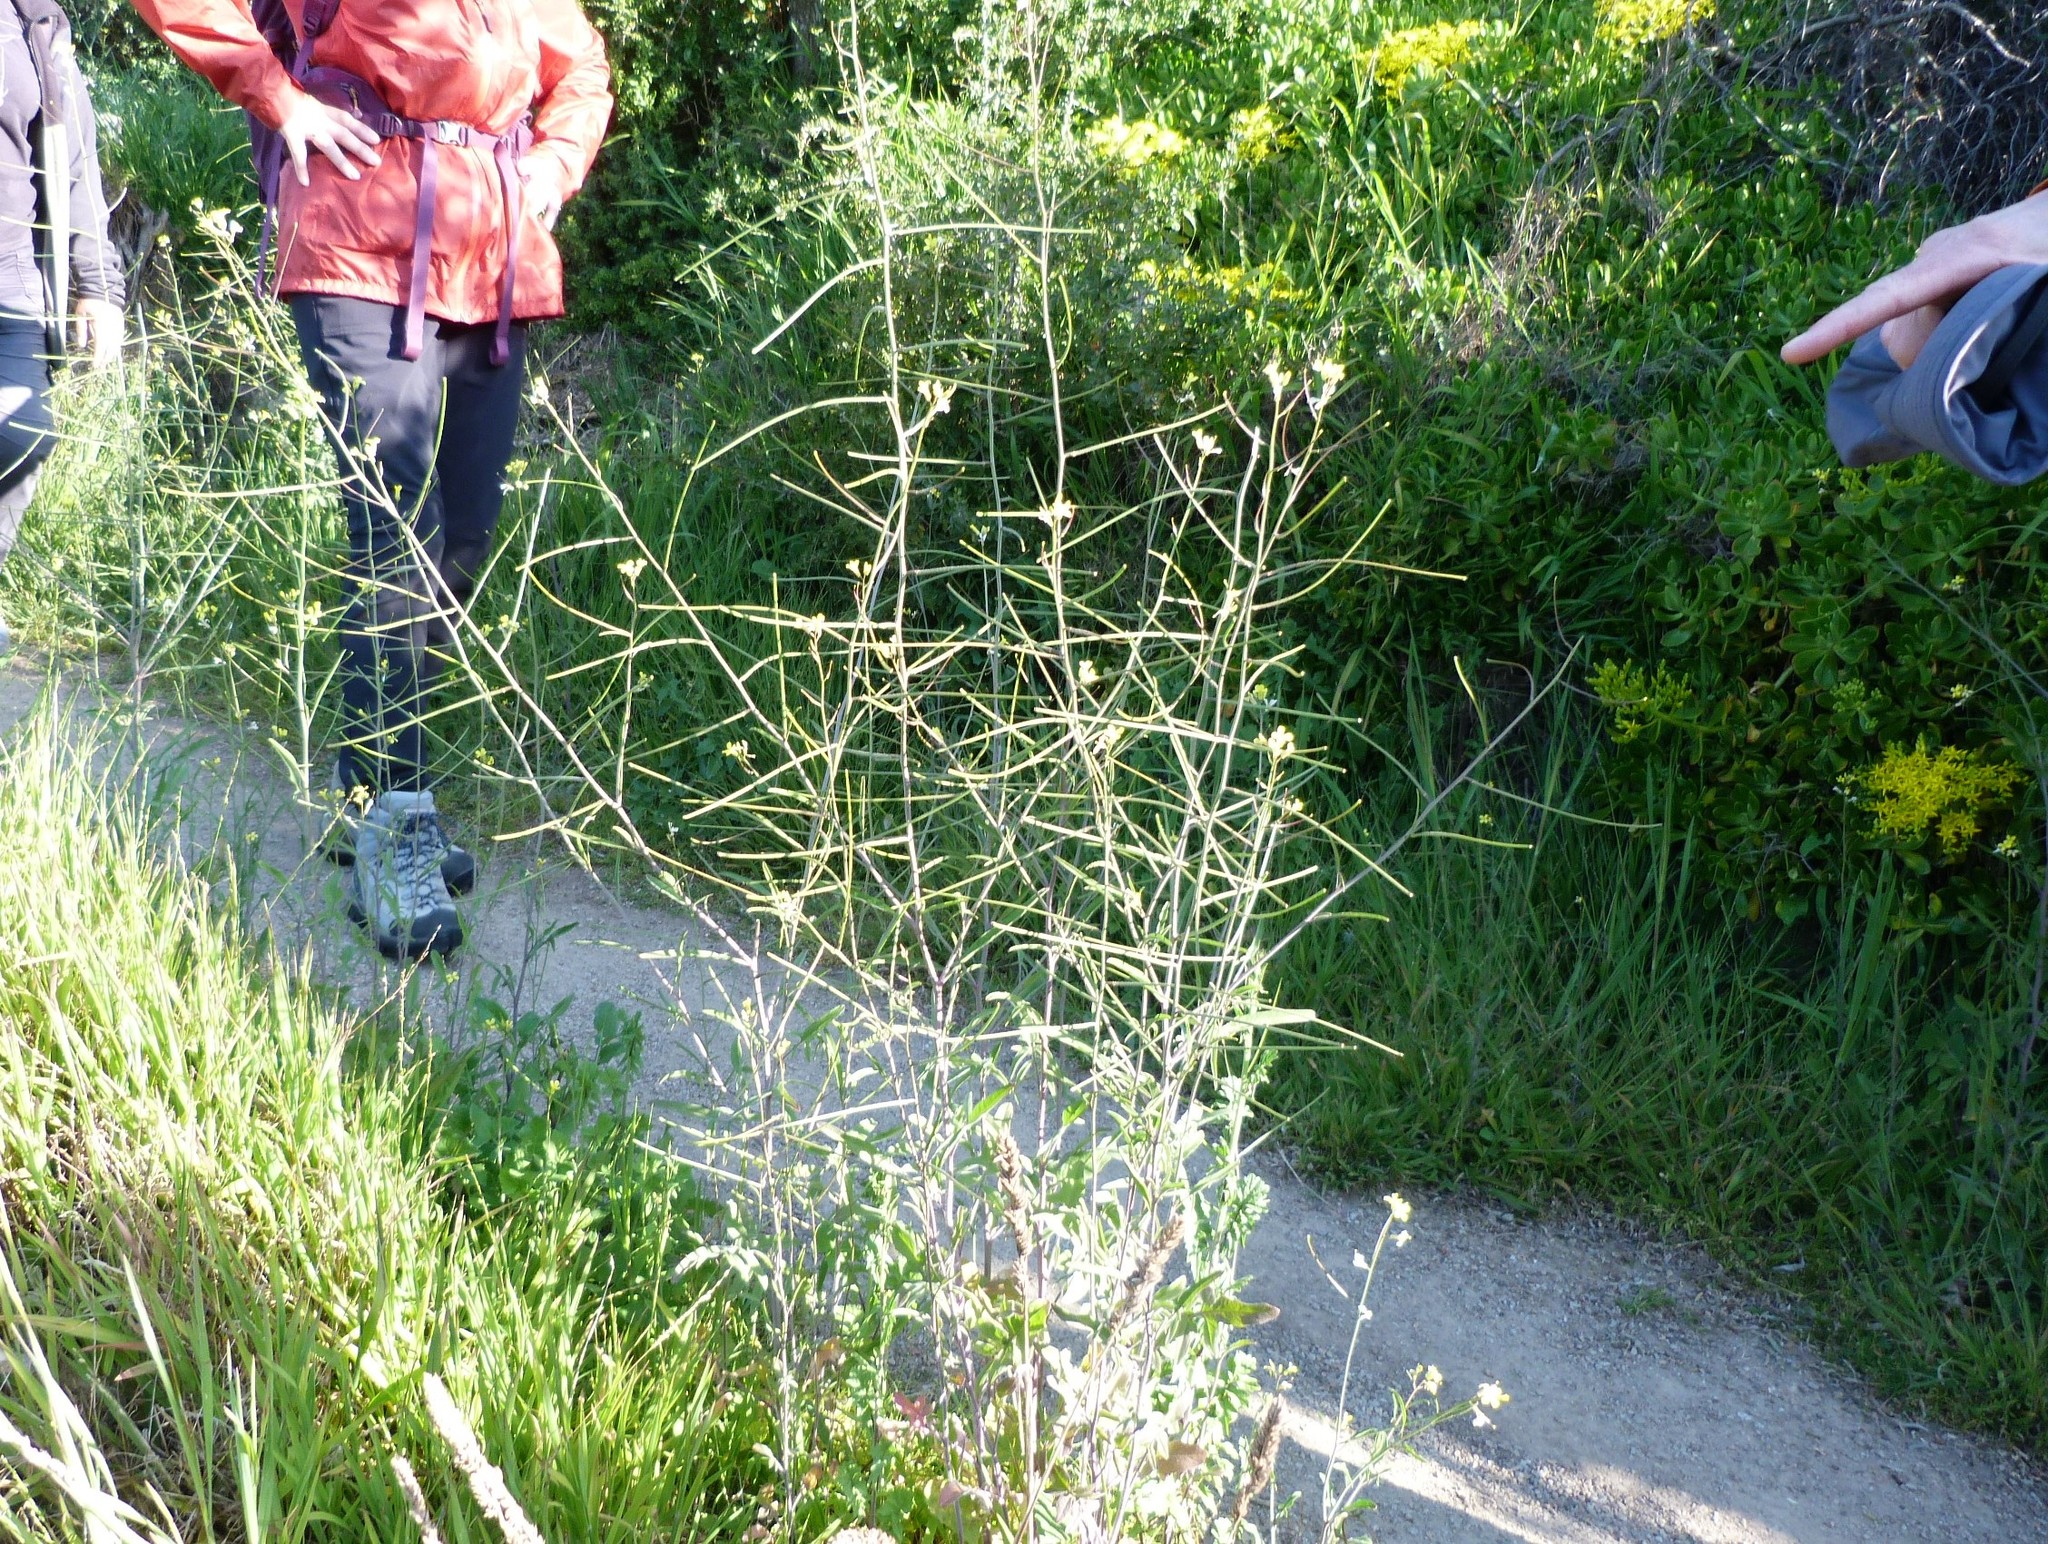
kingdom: Plantae
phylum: Tracheophyta
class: Magnoliopsida
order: Brassicales
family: Brassicaceae
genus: Sisymbrium
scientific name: Sisymbrium orientale
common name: Eastern rocket
